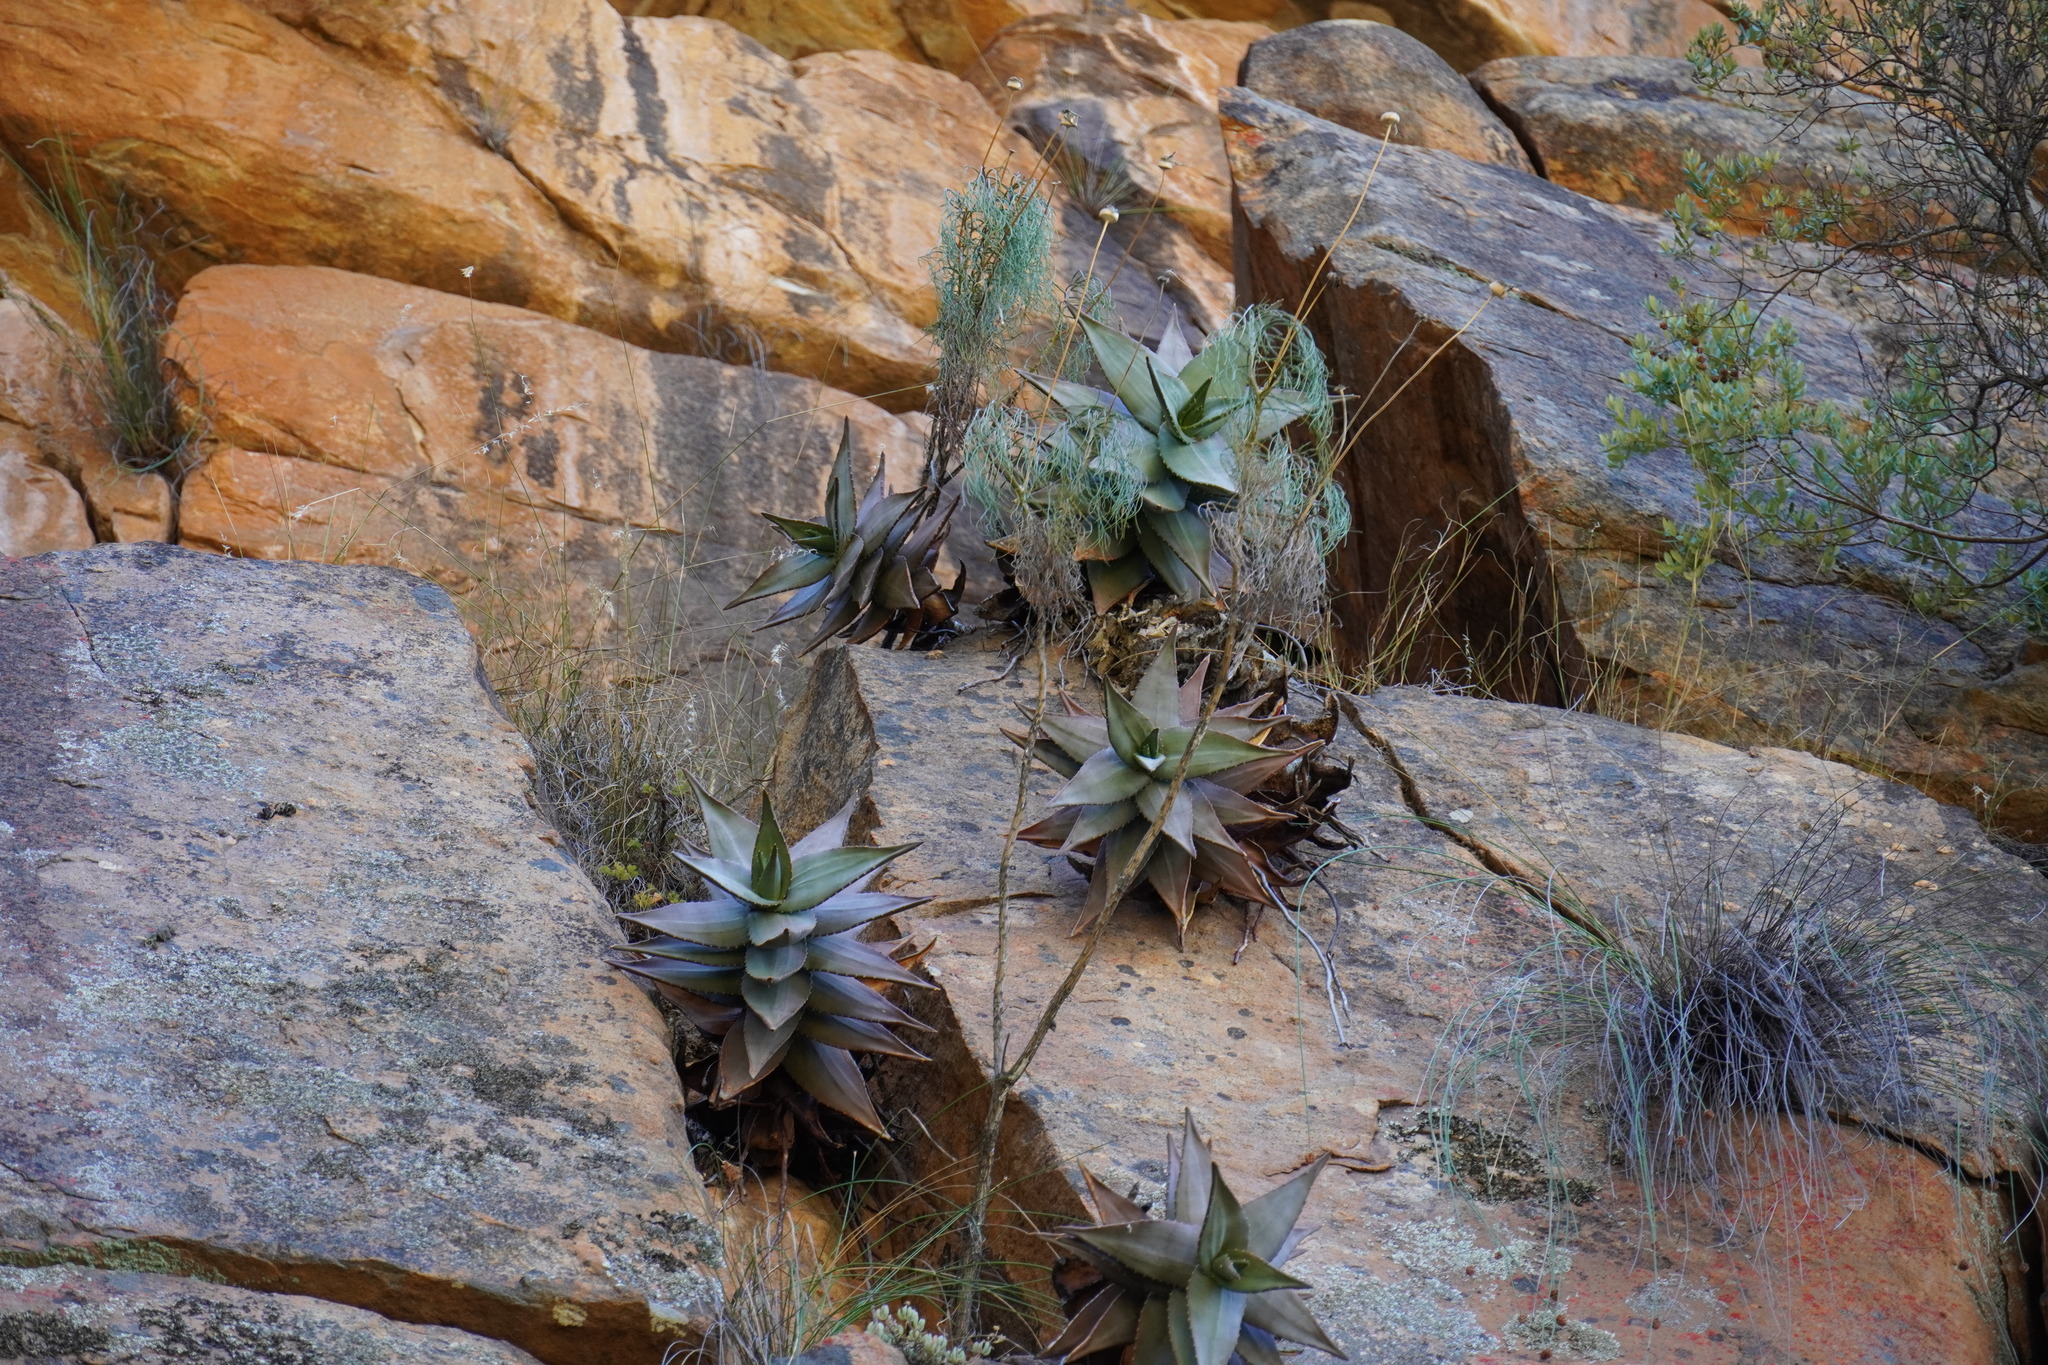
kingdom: Plantae
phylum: Tracheophyta
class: Liliopsida
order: Asparagales
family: Asphodelaceae
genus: Aloe
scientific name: Aloe perfoliata
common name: Mitra aloe
